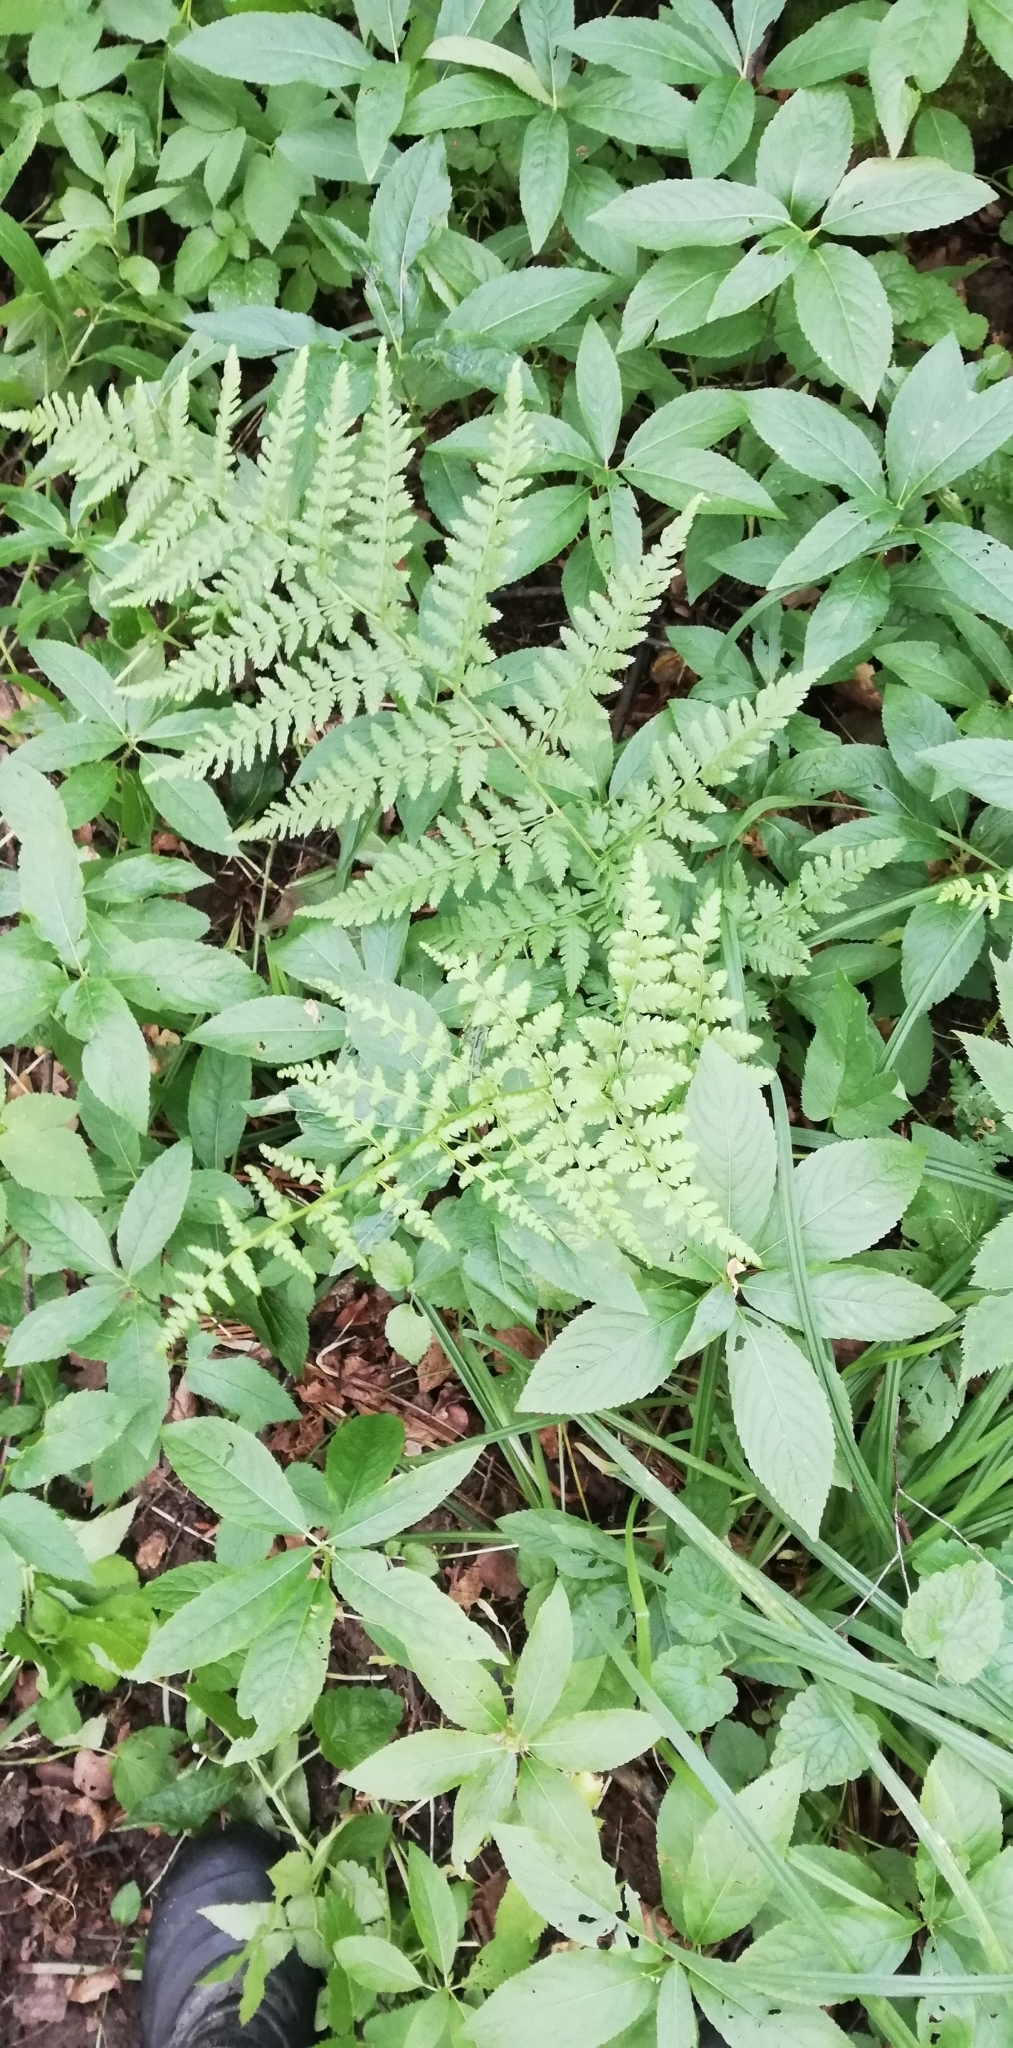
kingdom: Plantae
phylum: Tracheophyta
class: Polypodiopsida
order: Polypodiales
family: Dryopteridaceae
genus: Dryopteris
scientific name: Dryopteris carthusiana
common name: Narrow buckler-fern
